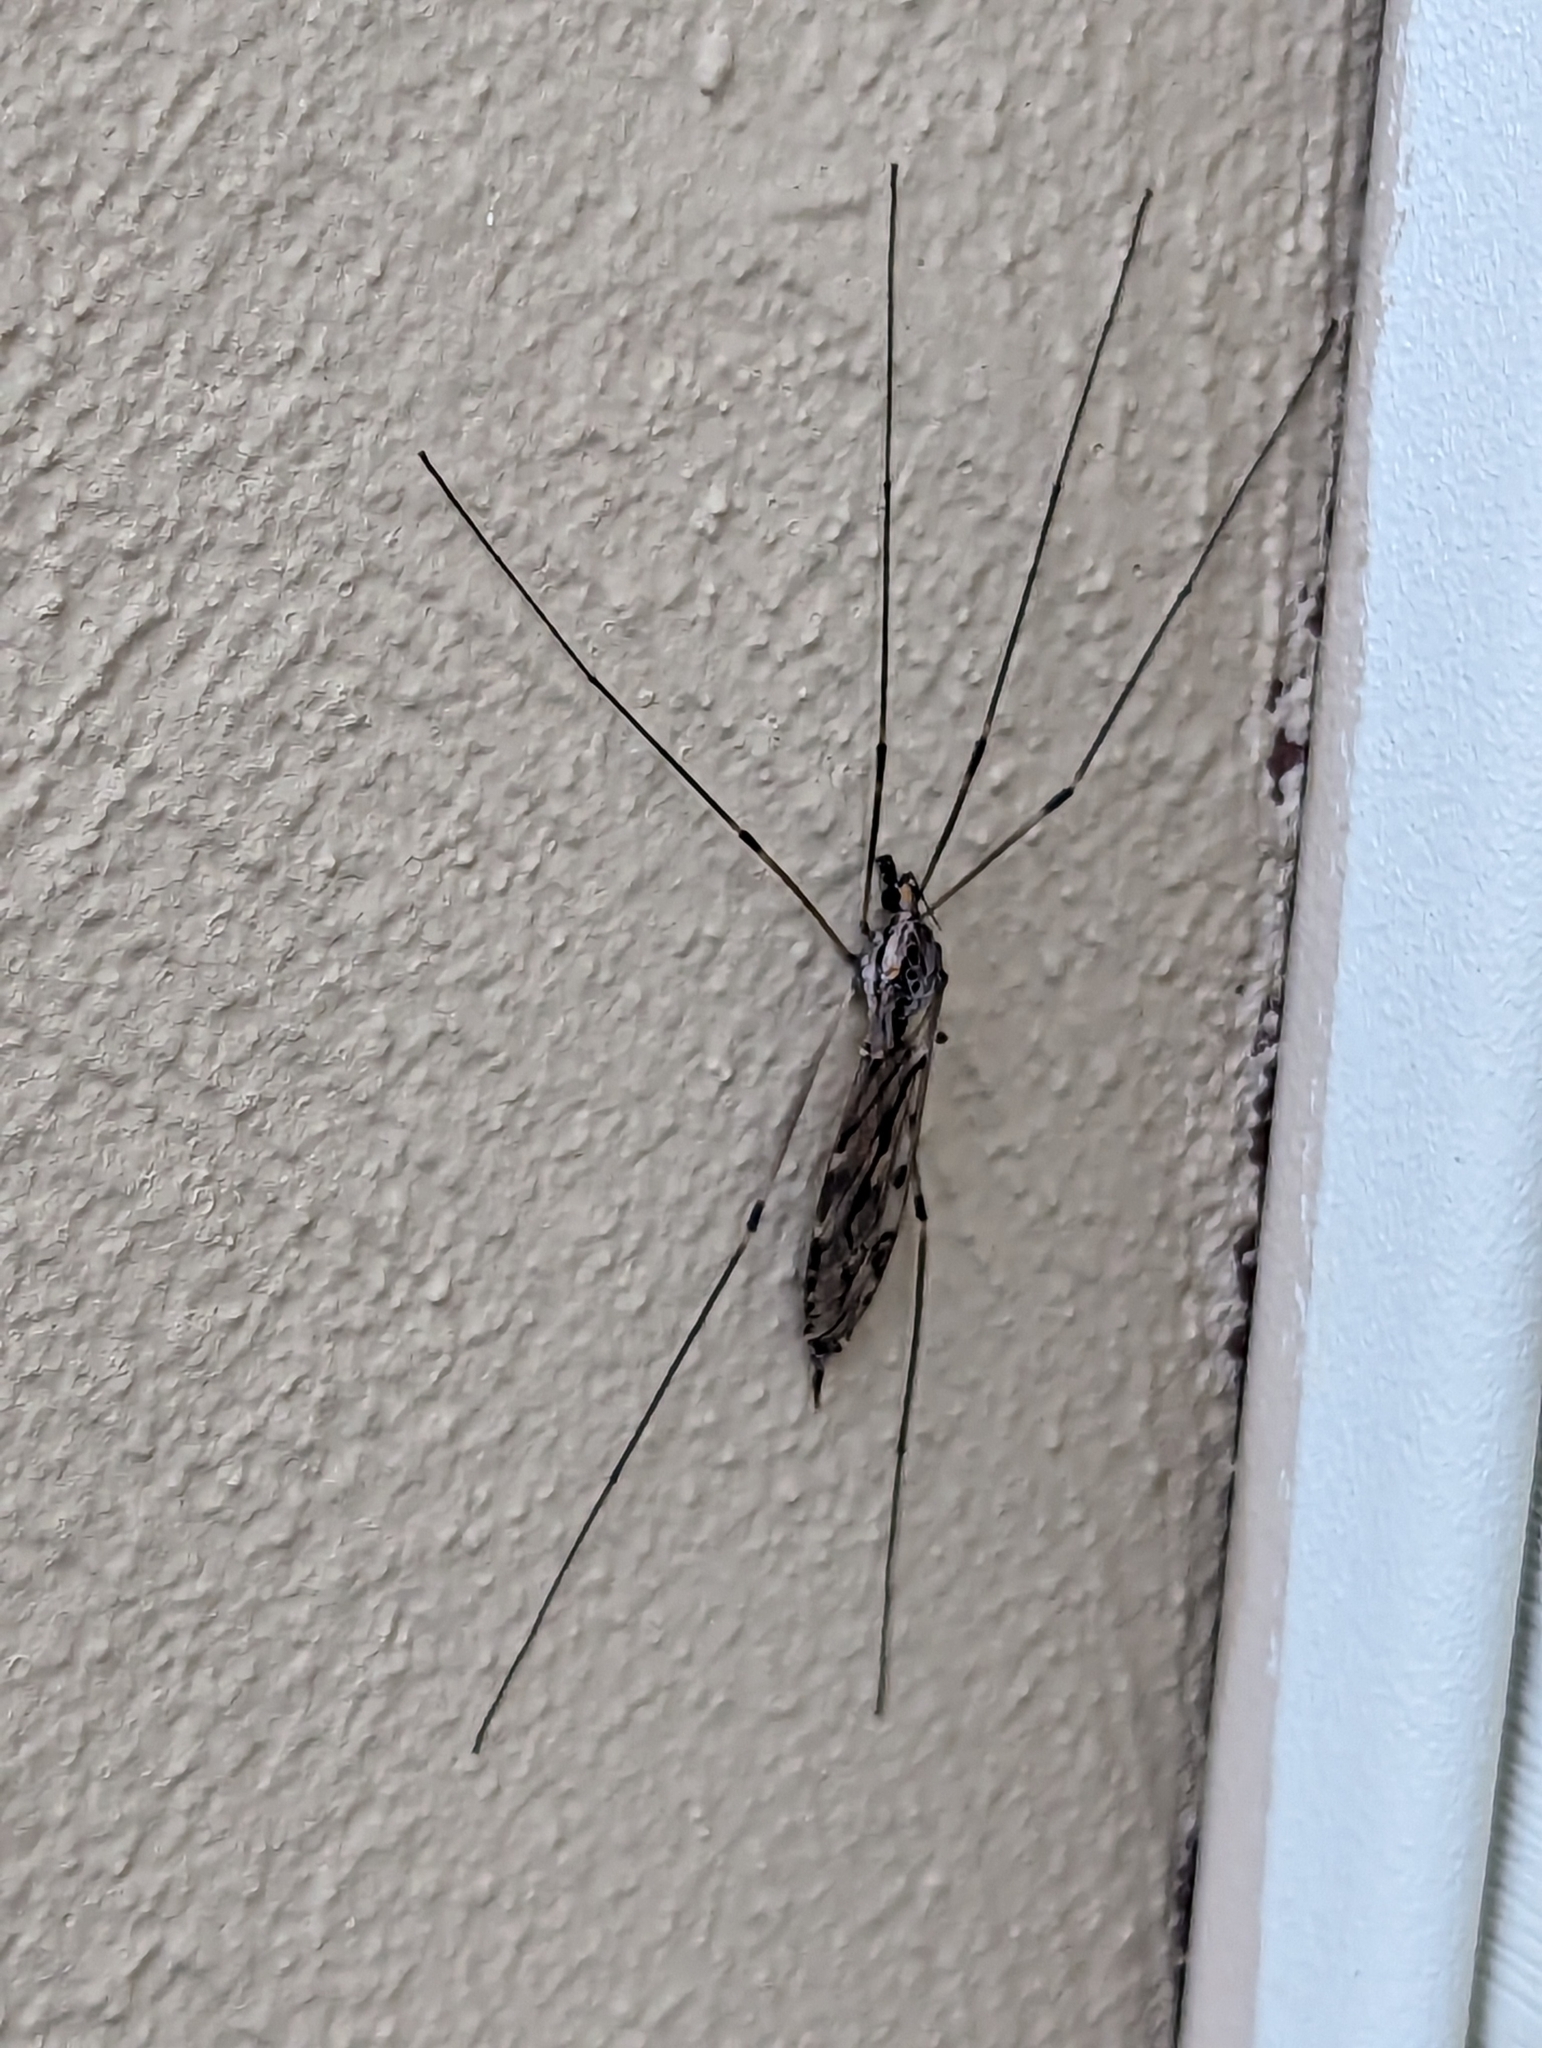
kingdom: Animalia
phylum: Arthropoda
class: Insecta
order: Diptera
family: Tipulidae
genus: Tipula
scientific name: Tipula abdominalis
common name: Giant crane fly
